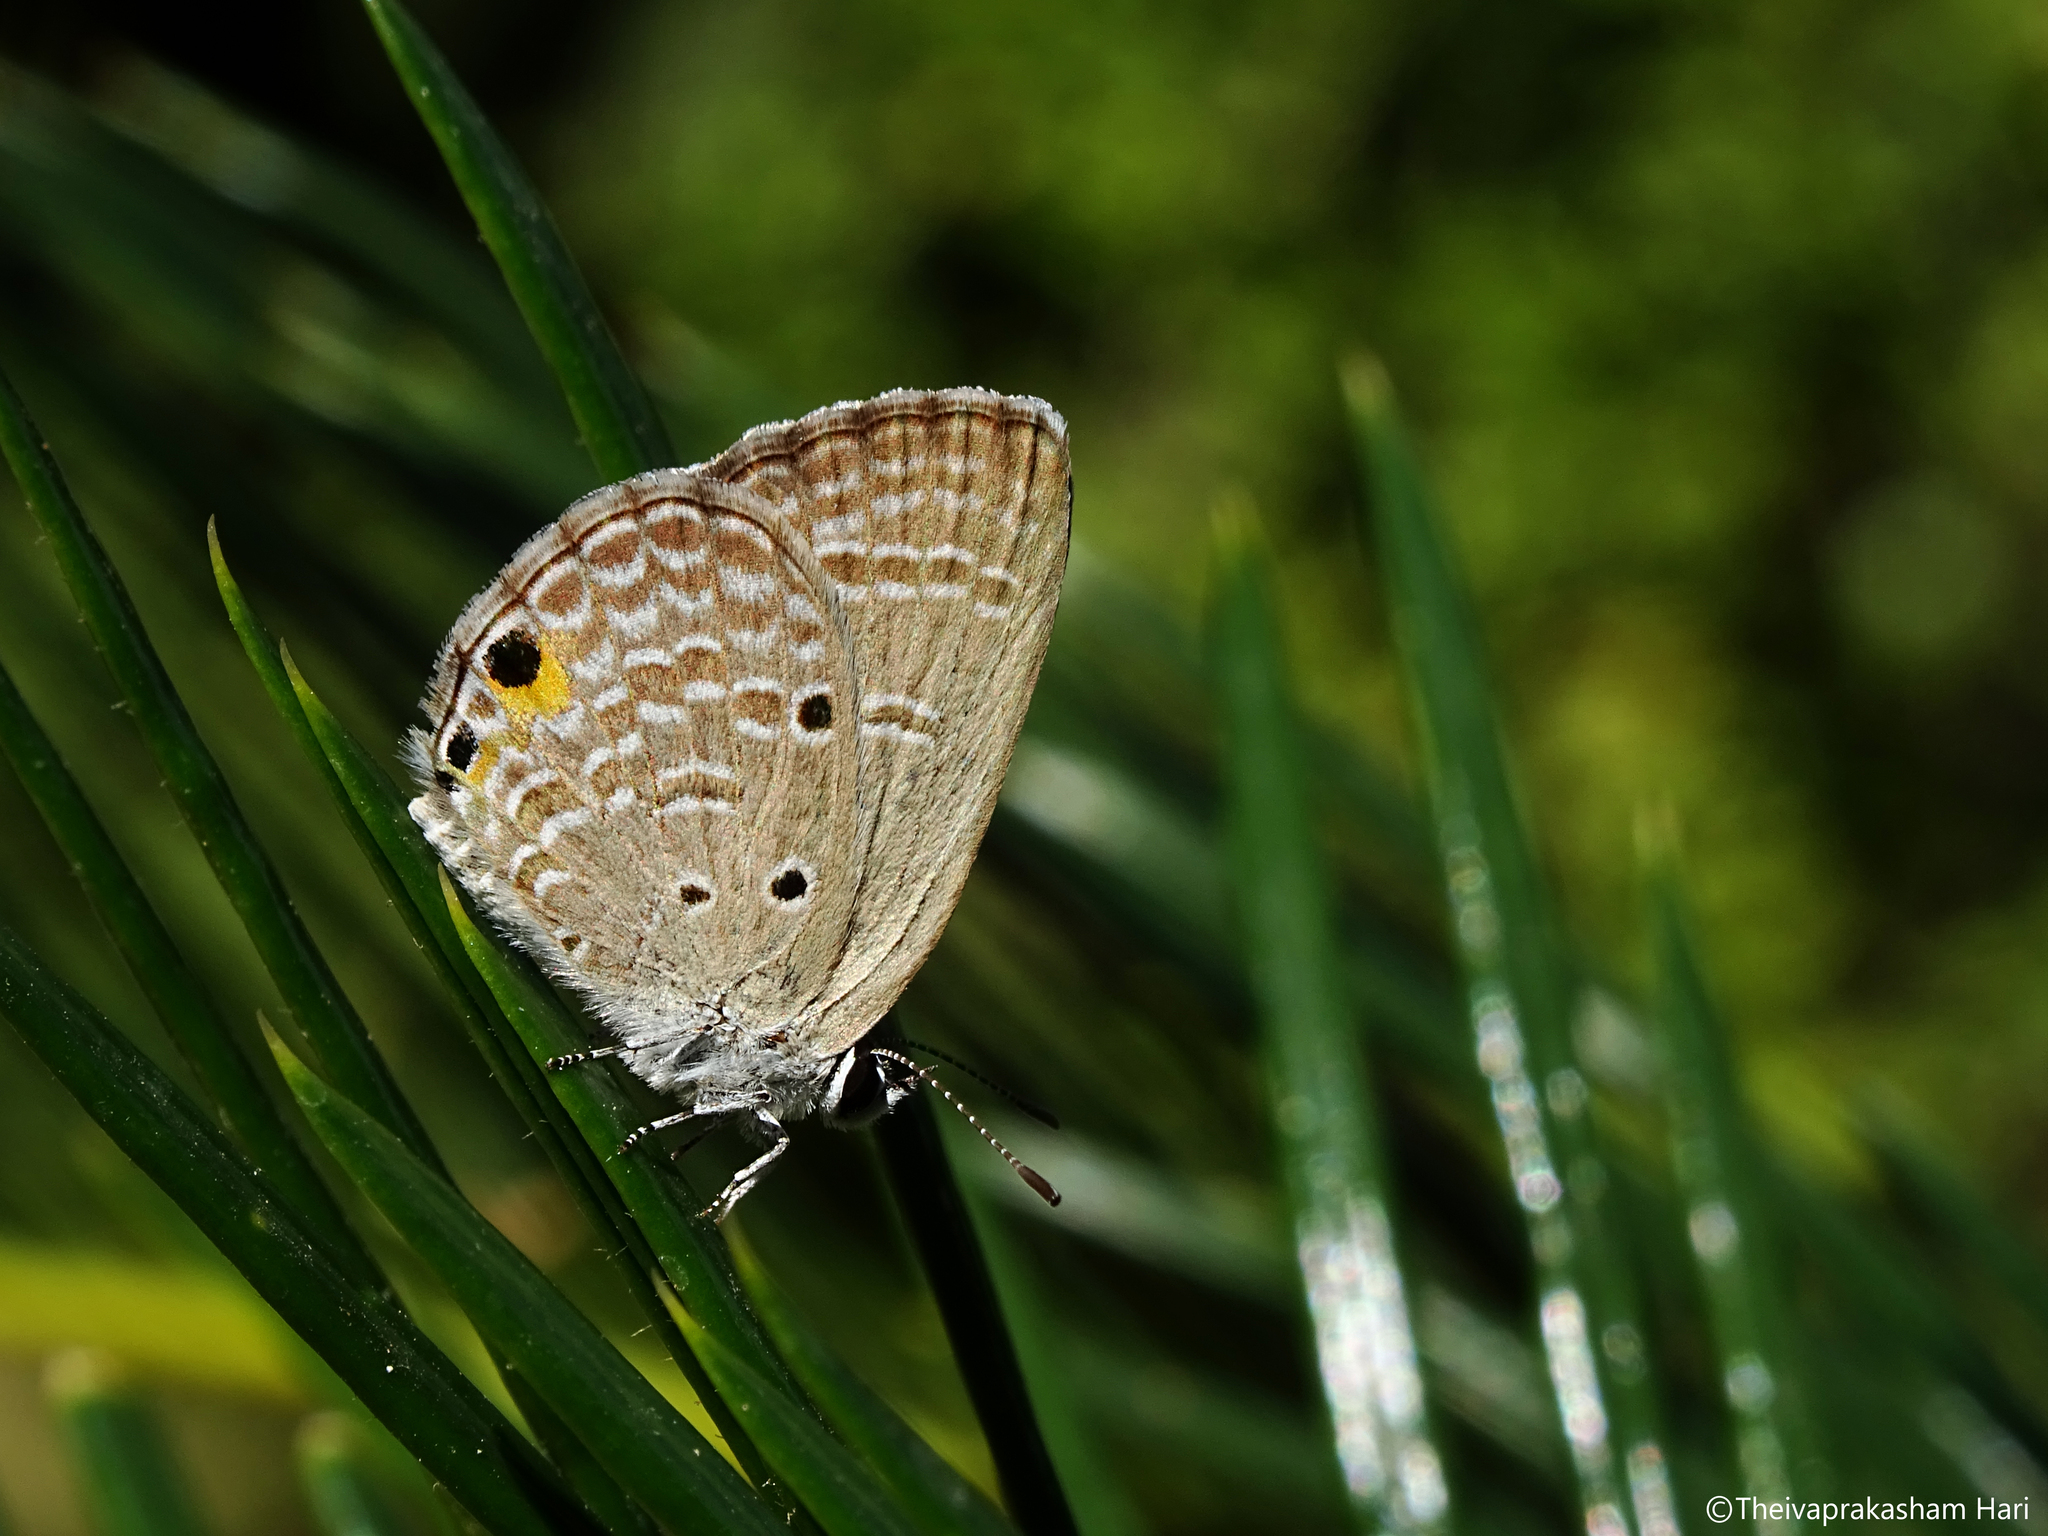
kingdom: Animalia
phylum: Arthropoda
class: Insecta
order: Lepidoptera
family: Lycaenidae
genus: Luthrodes
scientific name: Luthrodes pandava
